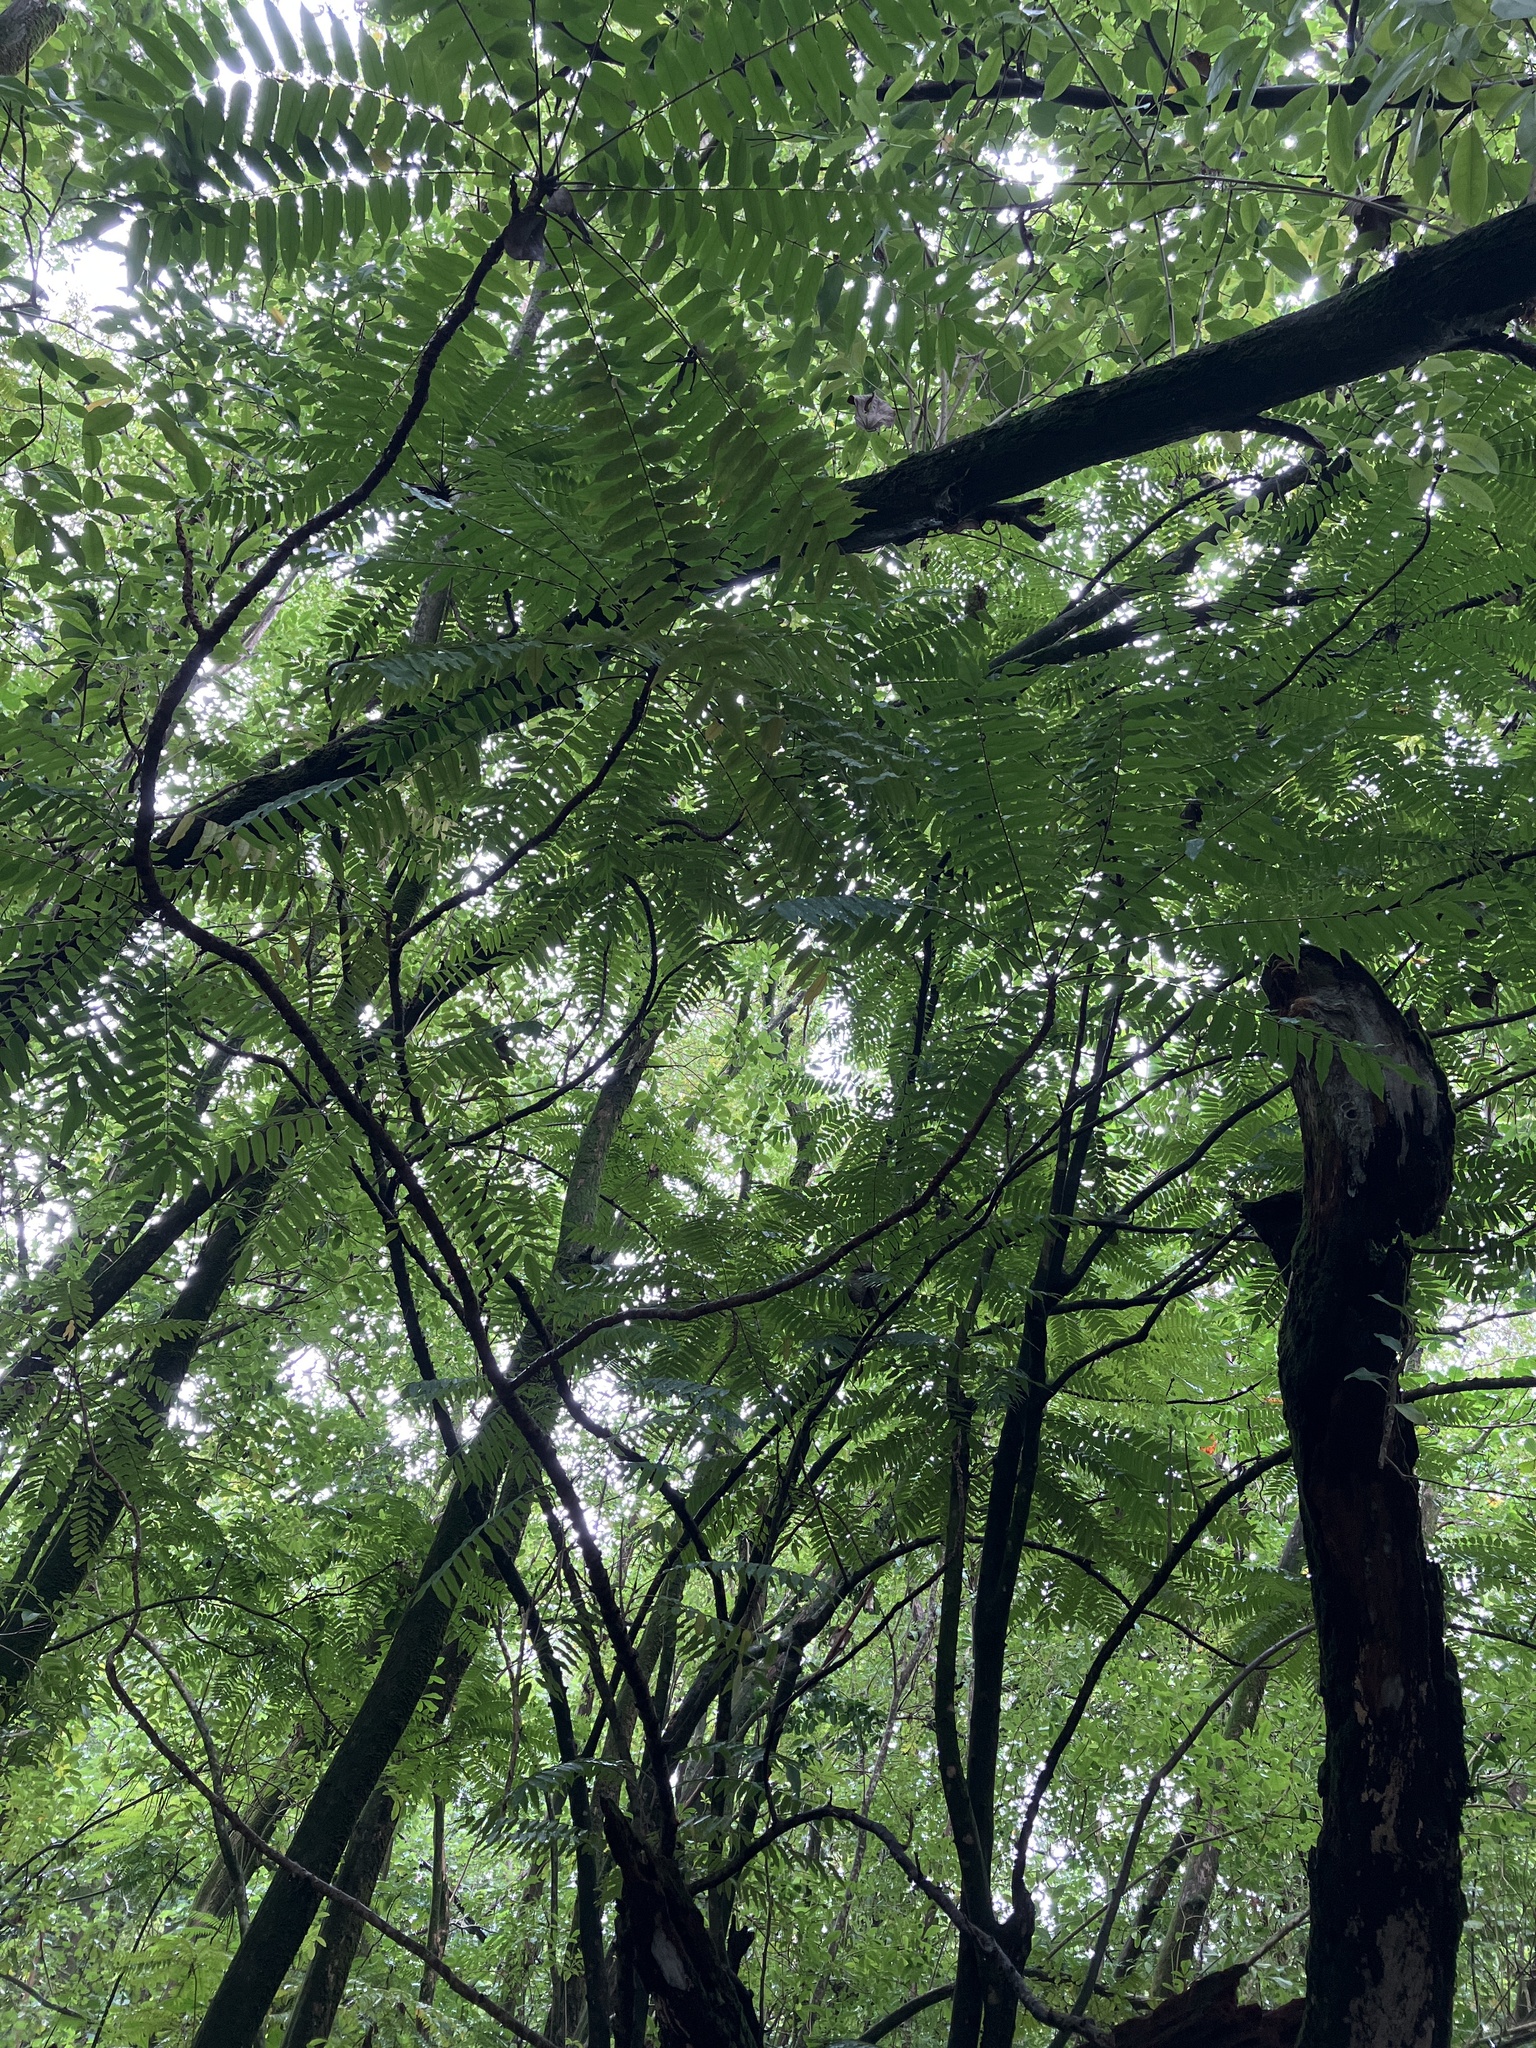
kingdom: Plantae
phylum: Tracheophyta
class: Magnoliopsida
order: Oxalidales
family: Oxalidaceae
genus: Averrhoa
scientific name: Averrhoa bilimbi
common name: Bilimbi
